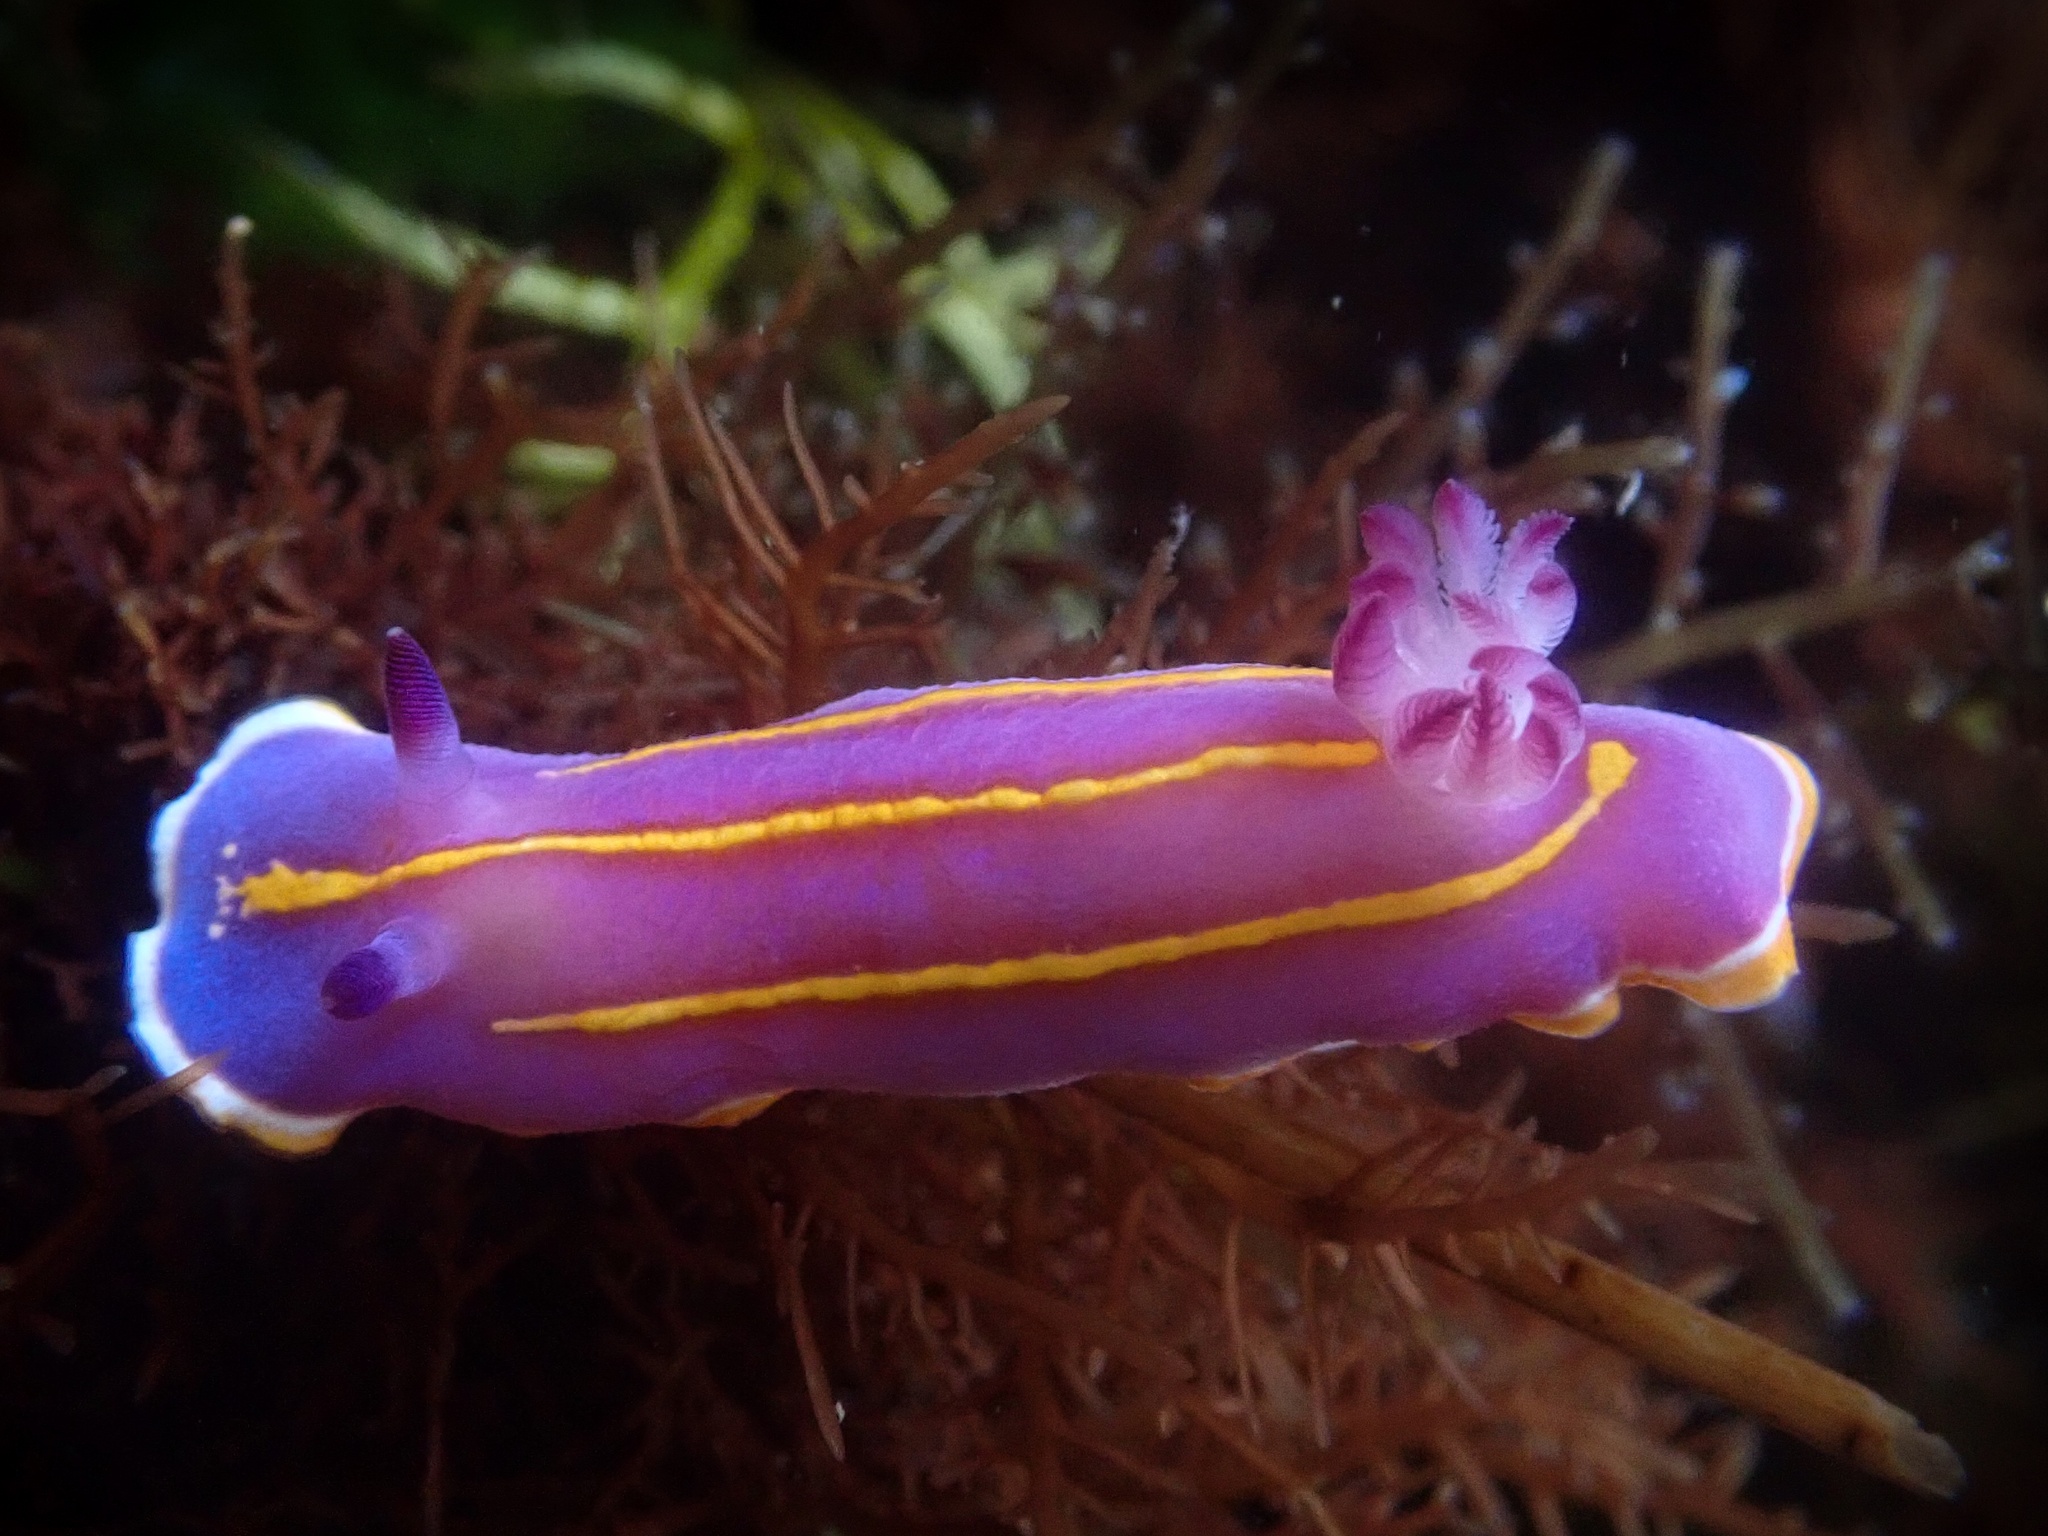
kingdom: Animalia
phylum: Mollusca
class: Gastropoda
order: Nudibranchia
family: Chromodorididae
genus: Felimida
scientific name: Felimida macfarlandi
